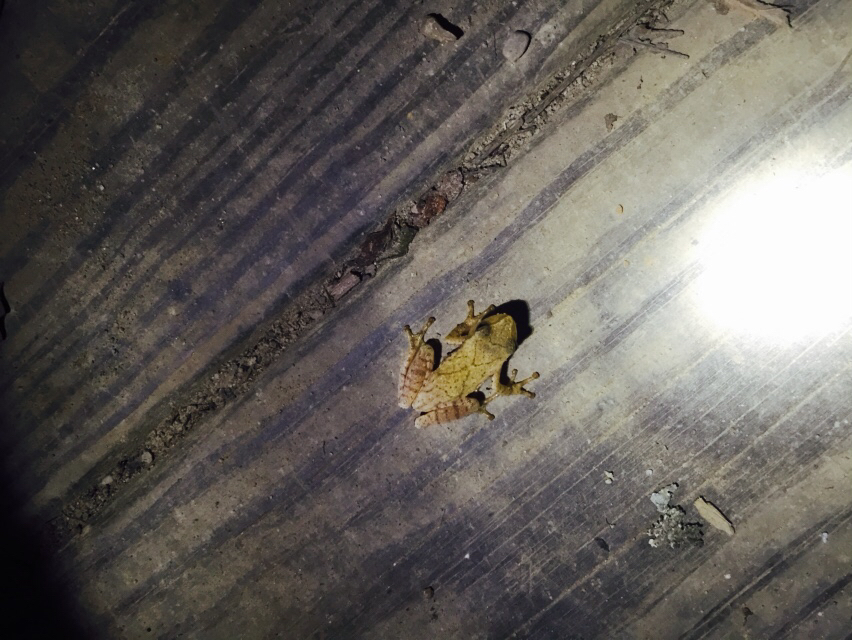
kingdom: Animalia
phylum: Chordata
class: Amphibia
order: Anura
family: Hylidae
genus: Pseudacris
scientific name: Pseudacris crucifer
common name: Spring peeper
